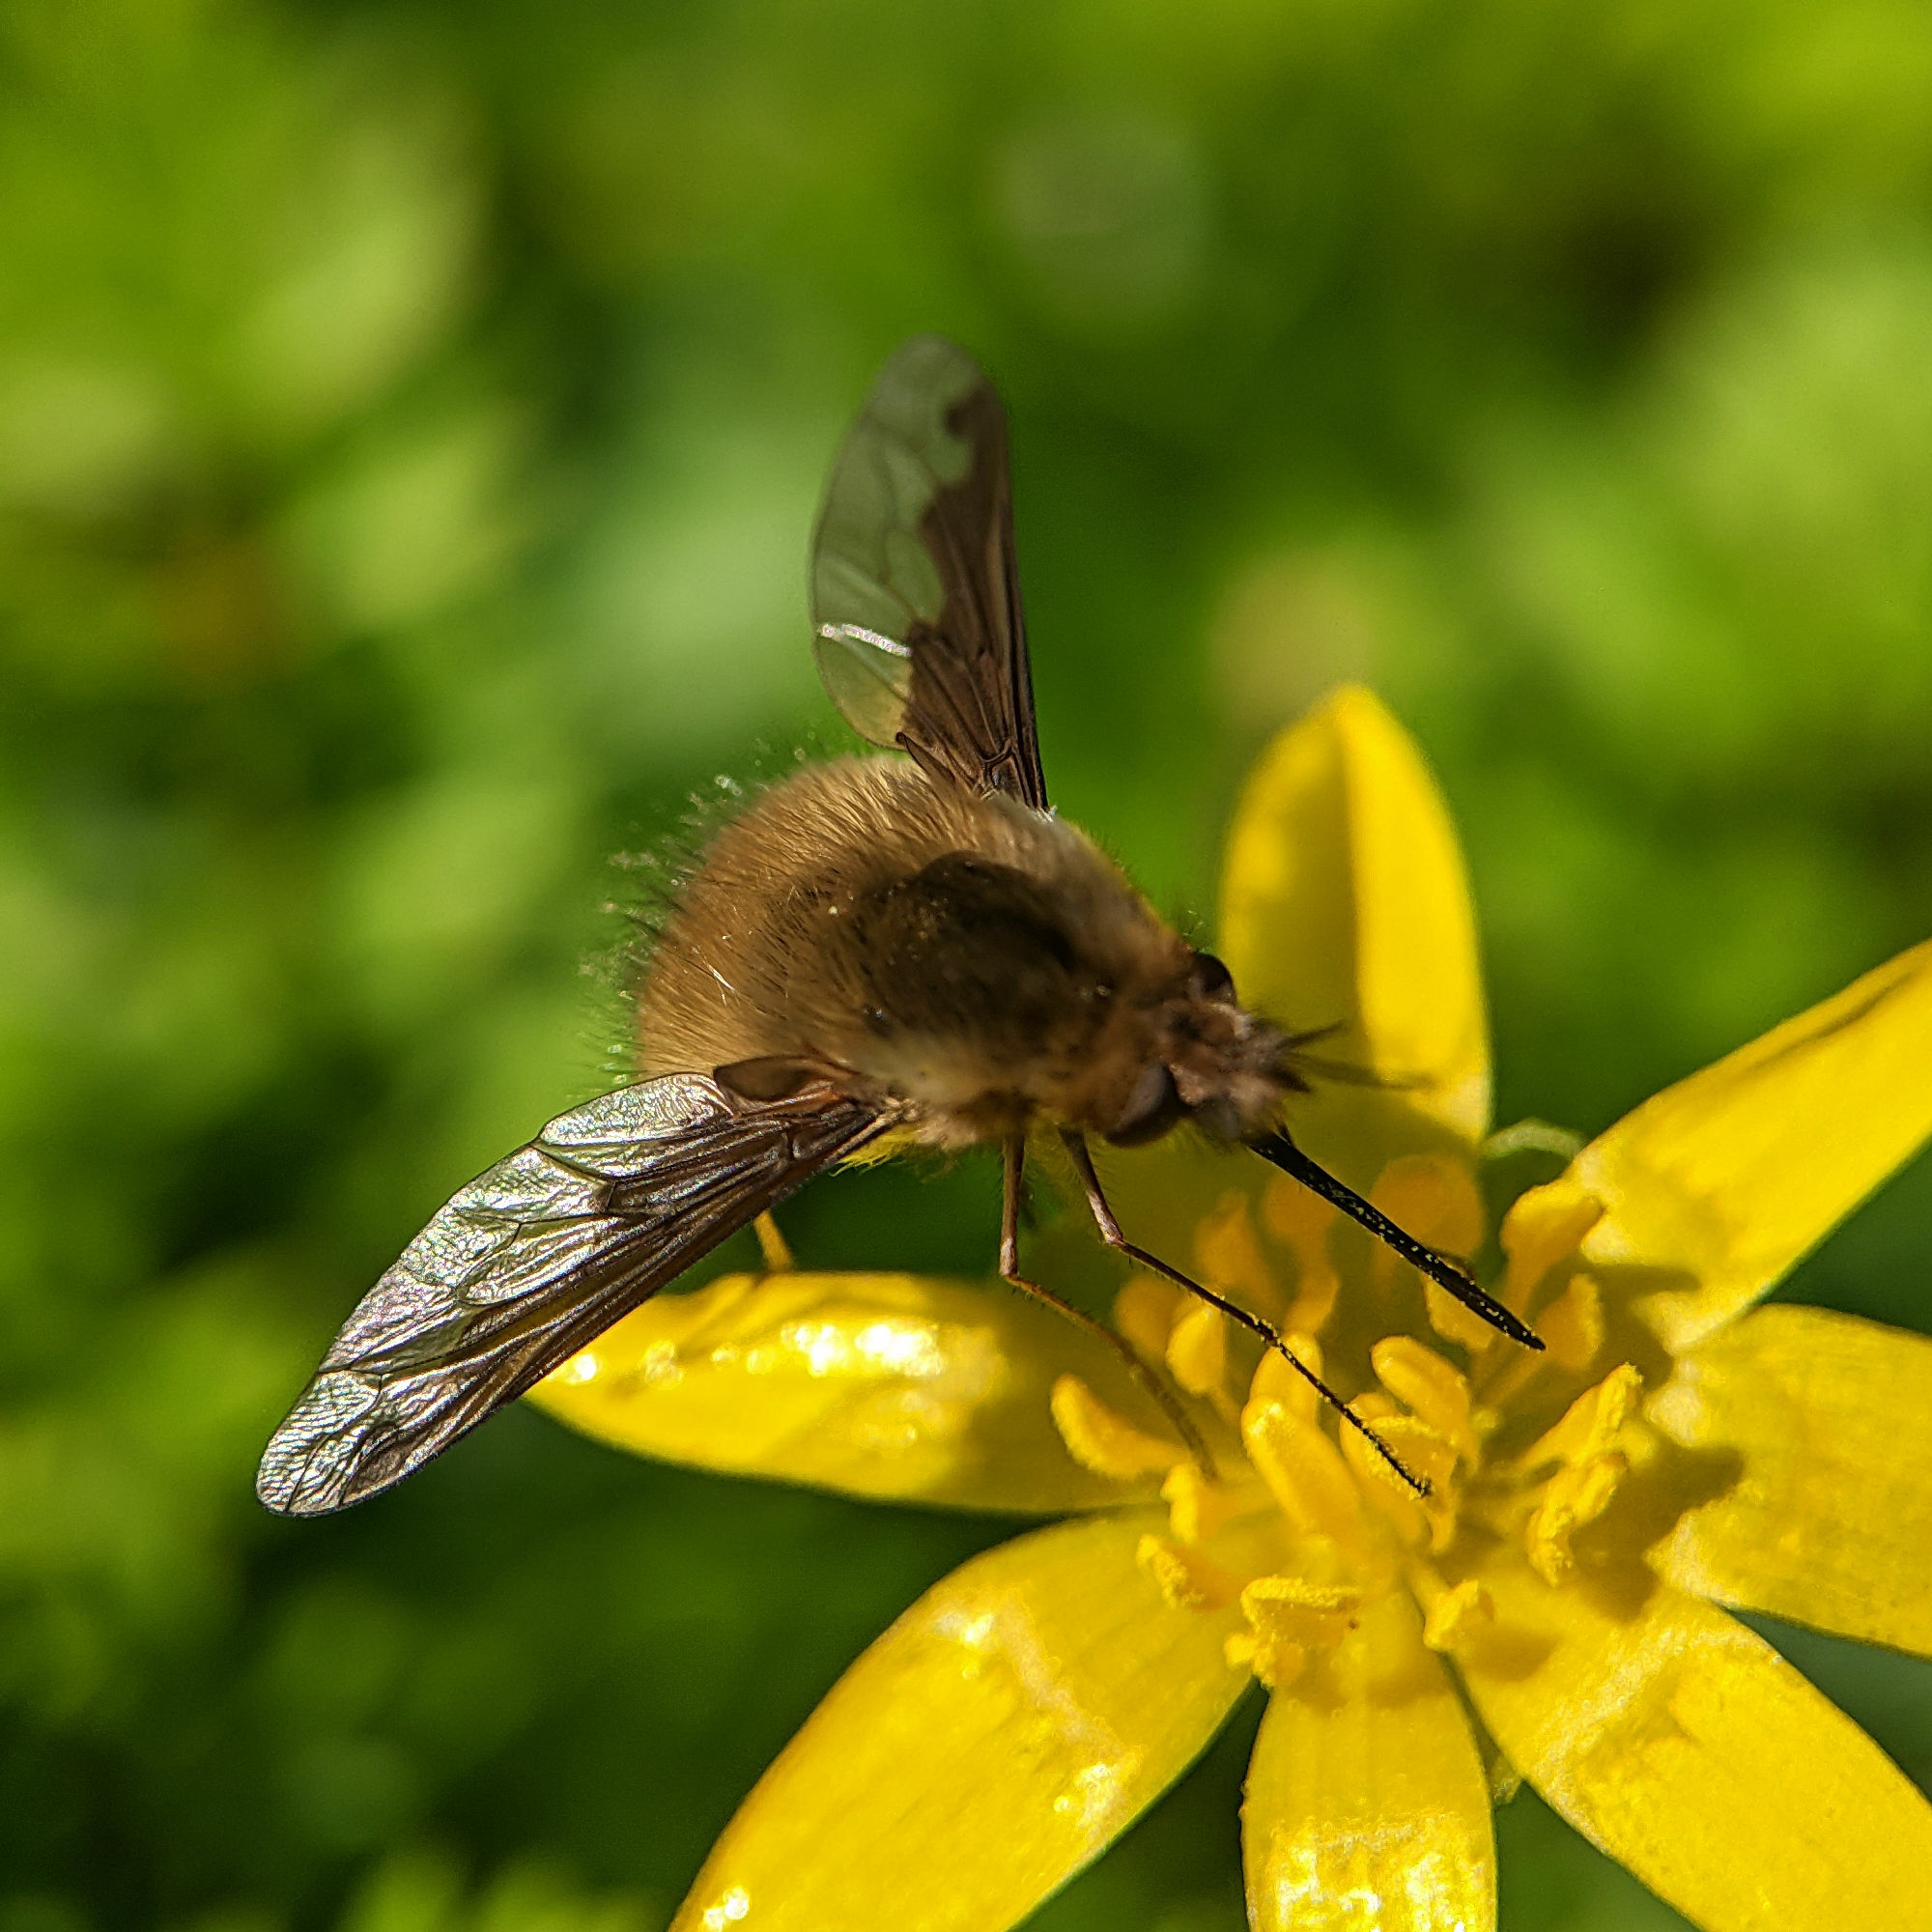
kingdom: Animalia
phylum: Arthropoda
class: Insecta
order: Diptera
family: Bombyliidae
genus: Bombylius
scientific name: Bombylius major
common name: Bee fly
